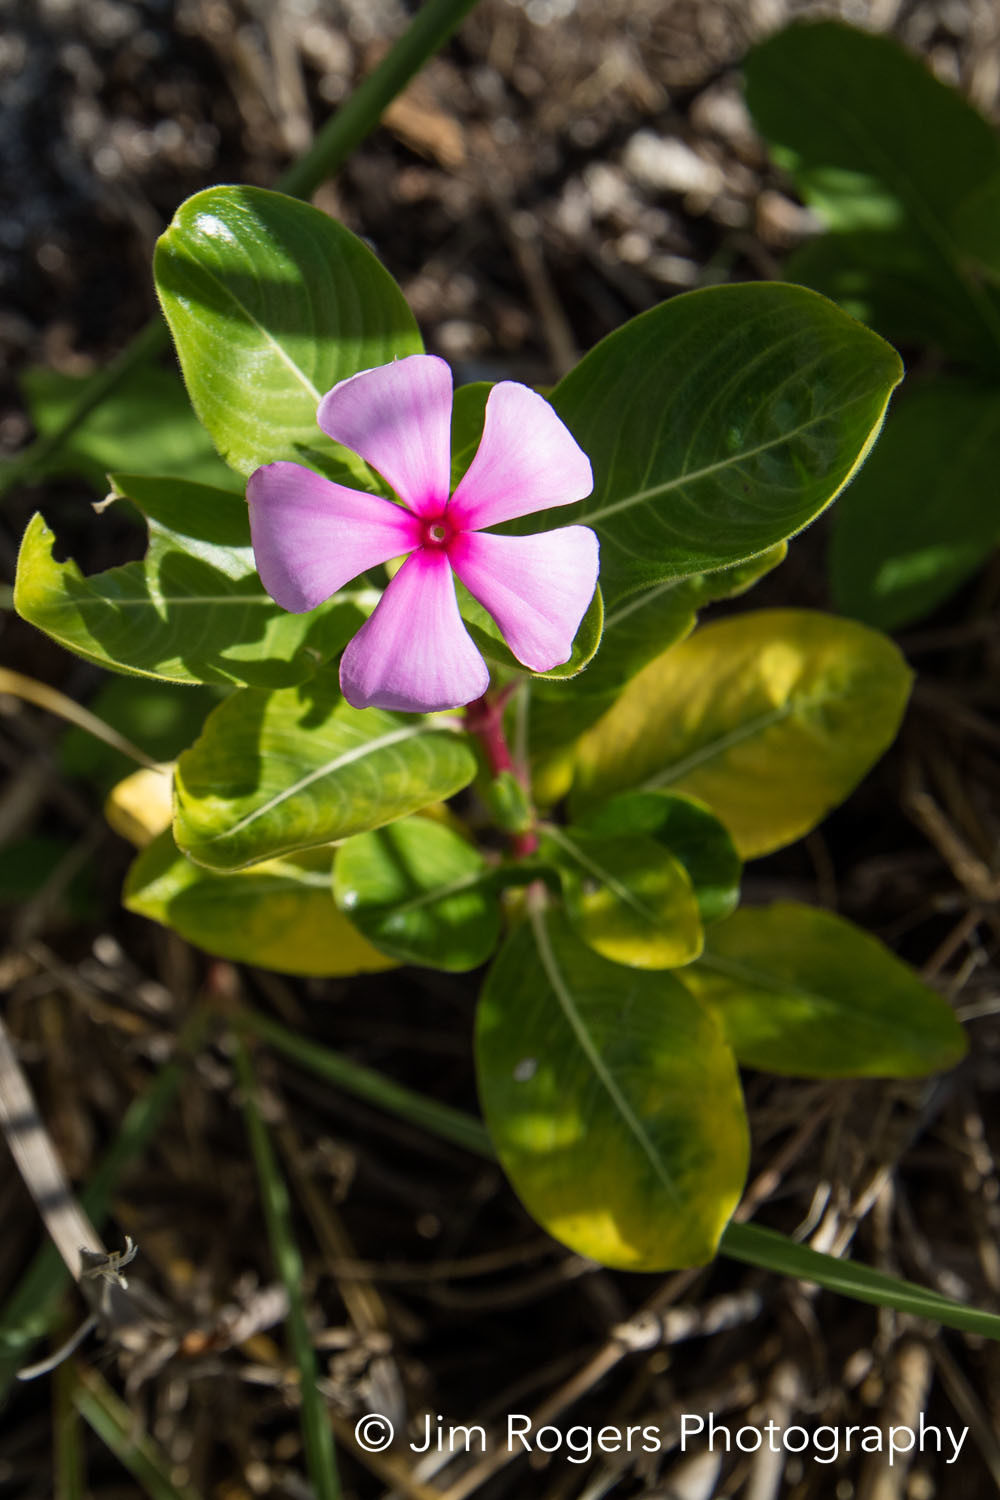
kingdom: Plantae
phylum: Tracheophyta
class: Magnoliopsida
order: Gentianales
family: Apocynaceae
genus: Catharanthus
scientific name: Catharanthus roseus
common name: Madagascar periwinkle
